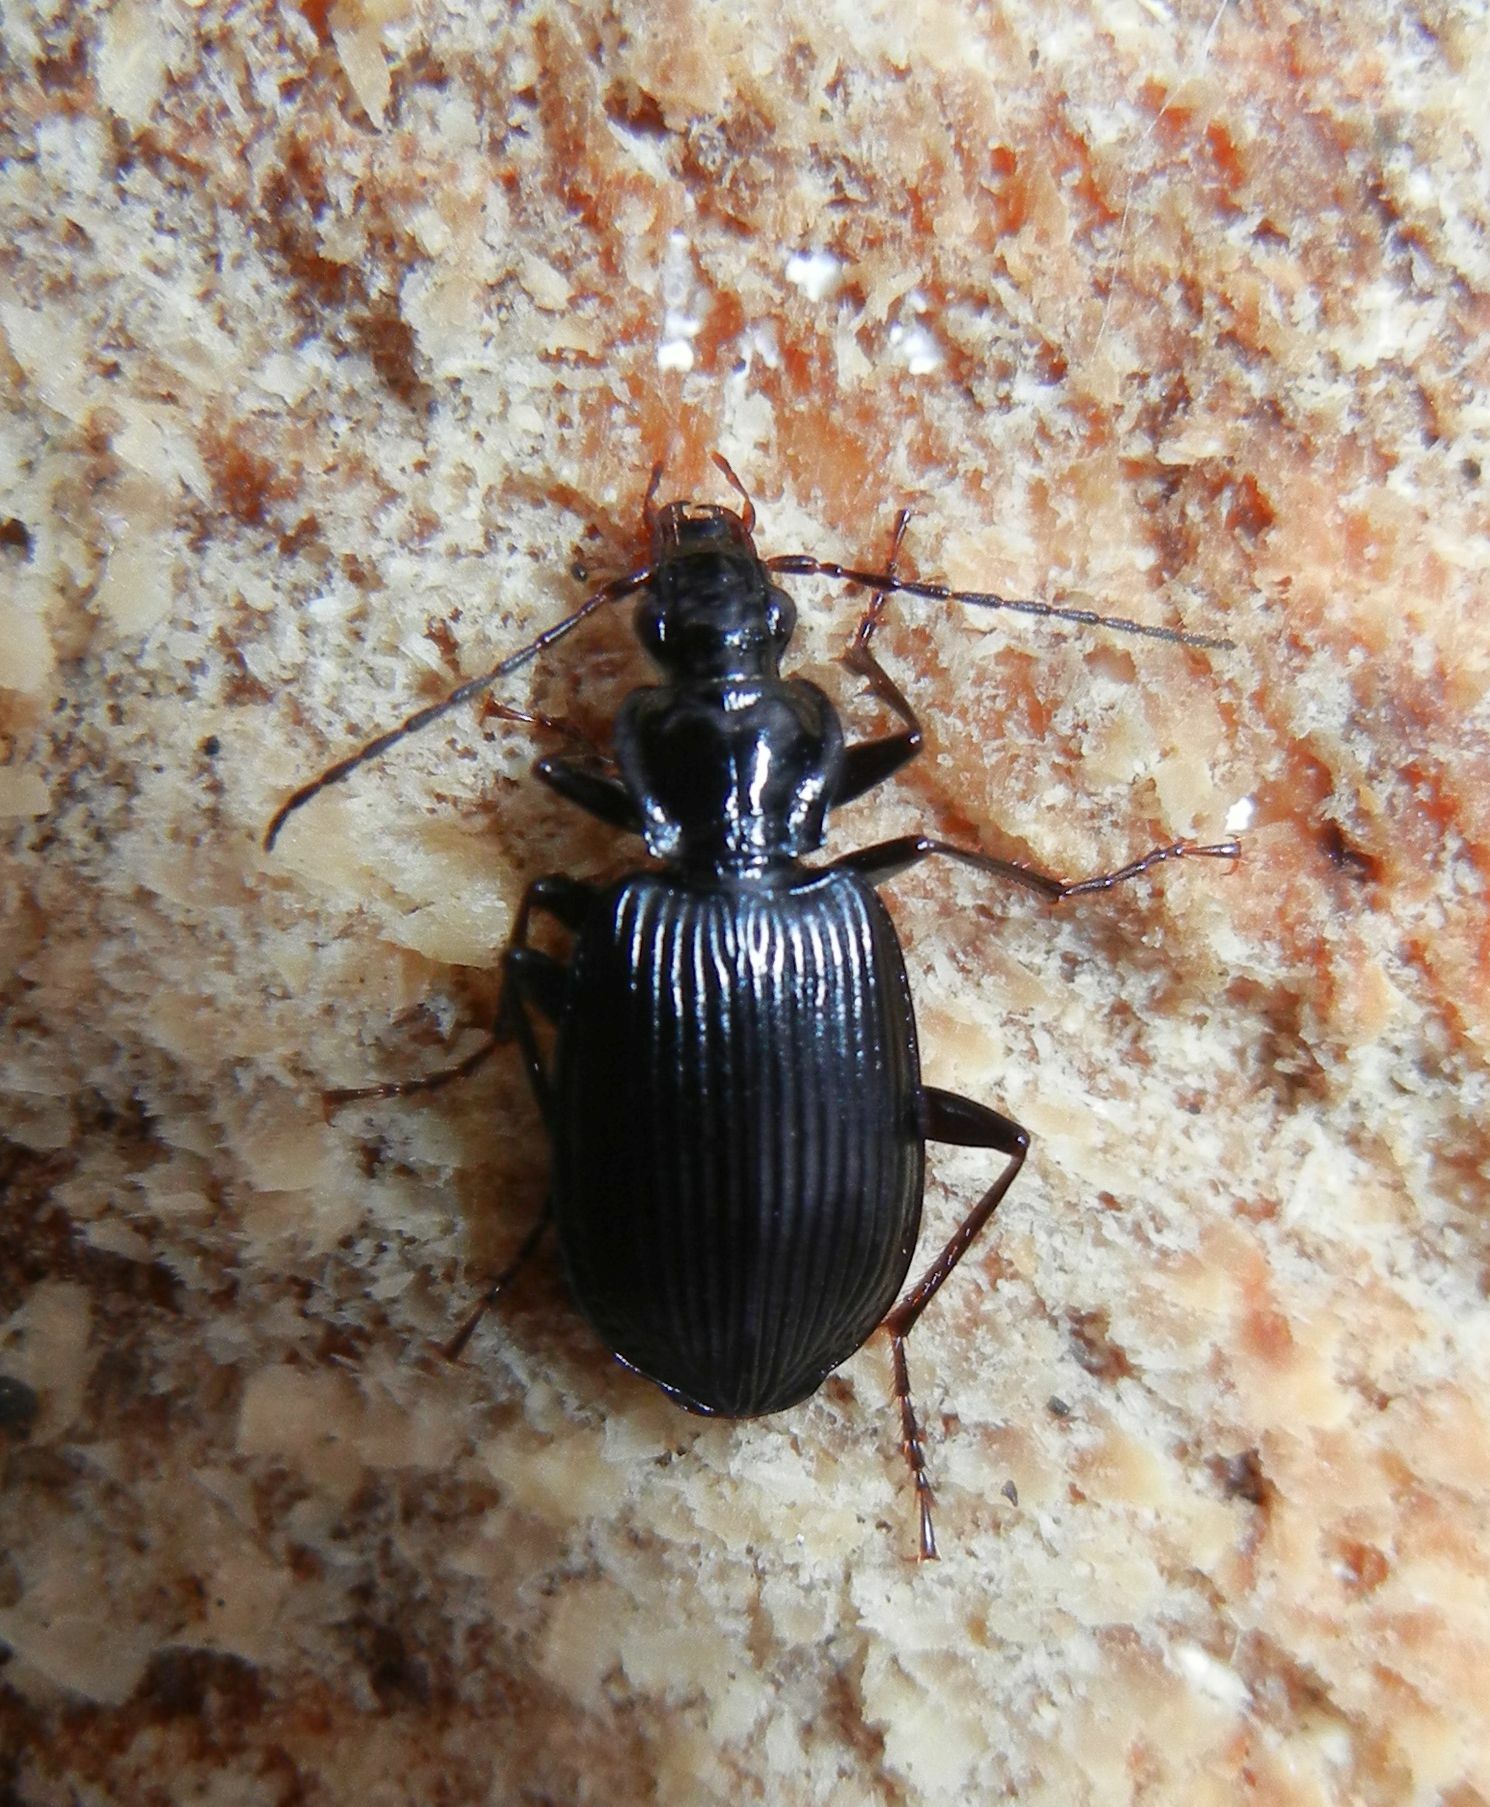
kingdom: Animalia
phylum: Arthropoda
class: Insecta
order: Coleoptera
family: Carabidae
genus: Platynus
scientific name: Platynus assimilis
